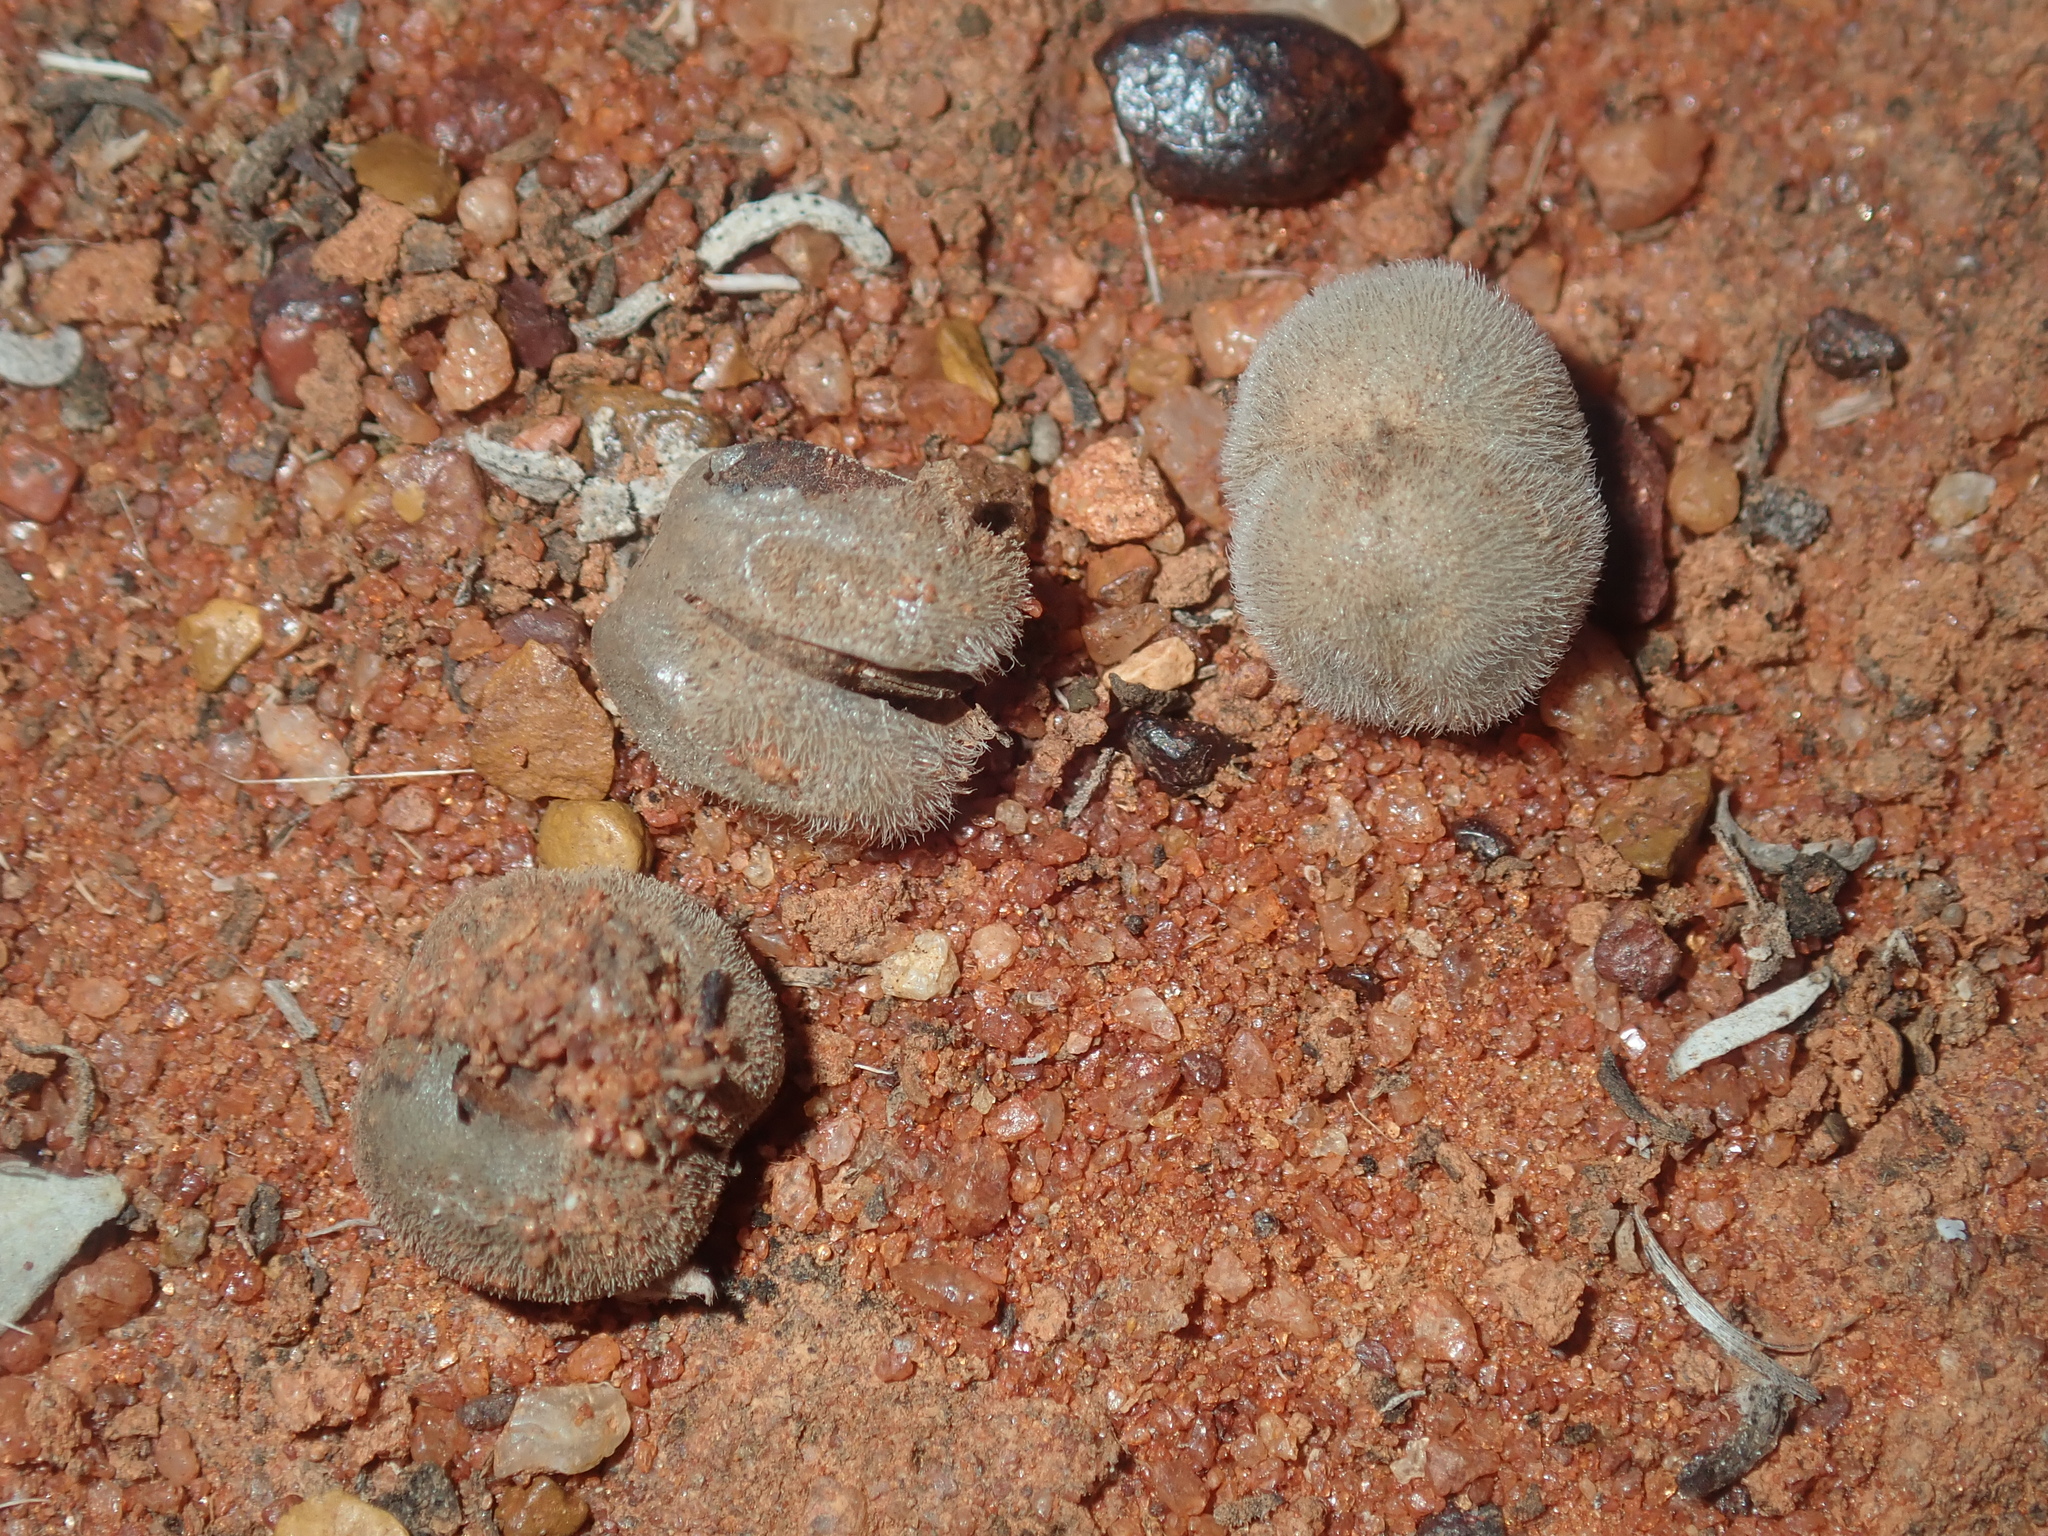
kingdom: Plantae
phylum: Tracheophyta
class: Magnoliopsida
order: Lamiales
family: Scrophulariaceae
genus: Eremophila
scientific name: Eremophila battii
